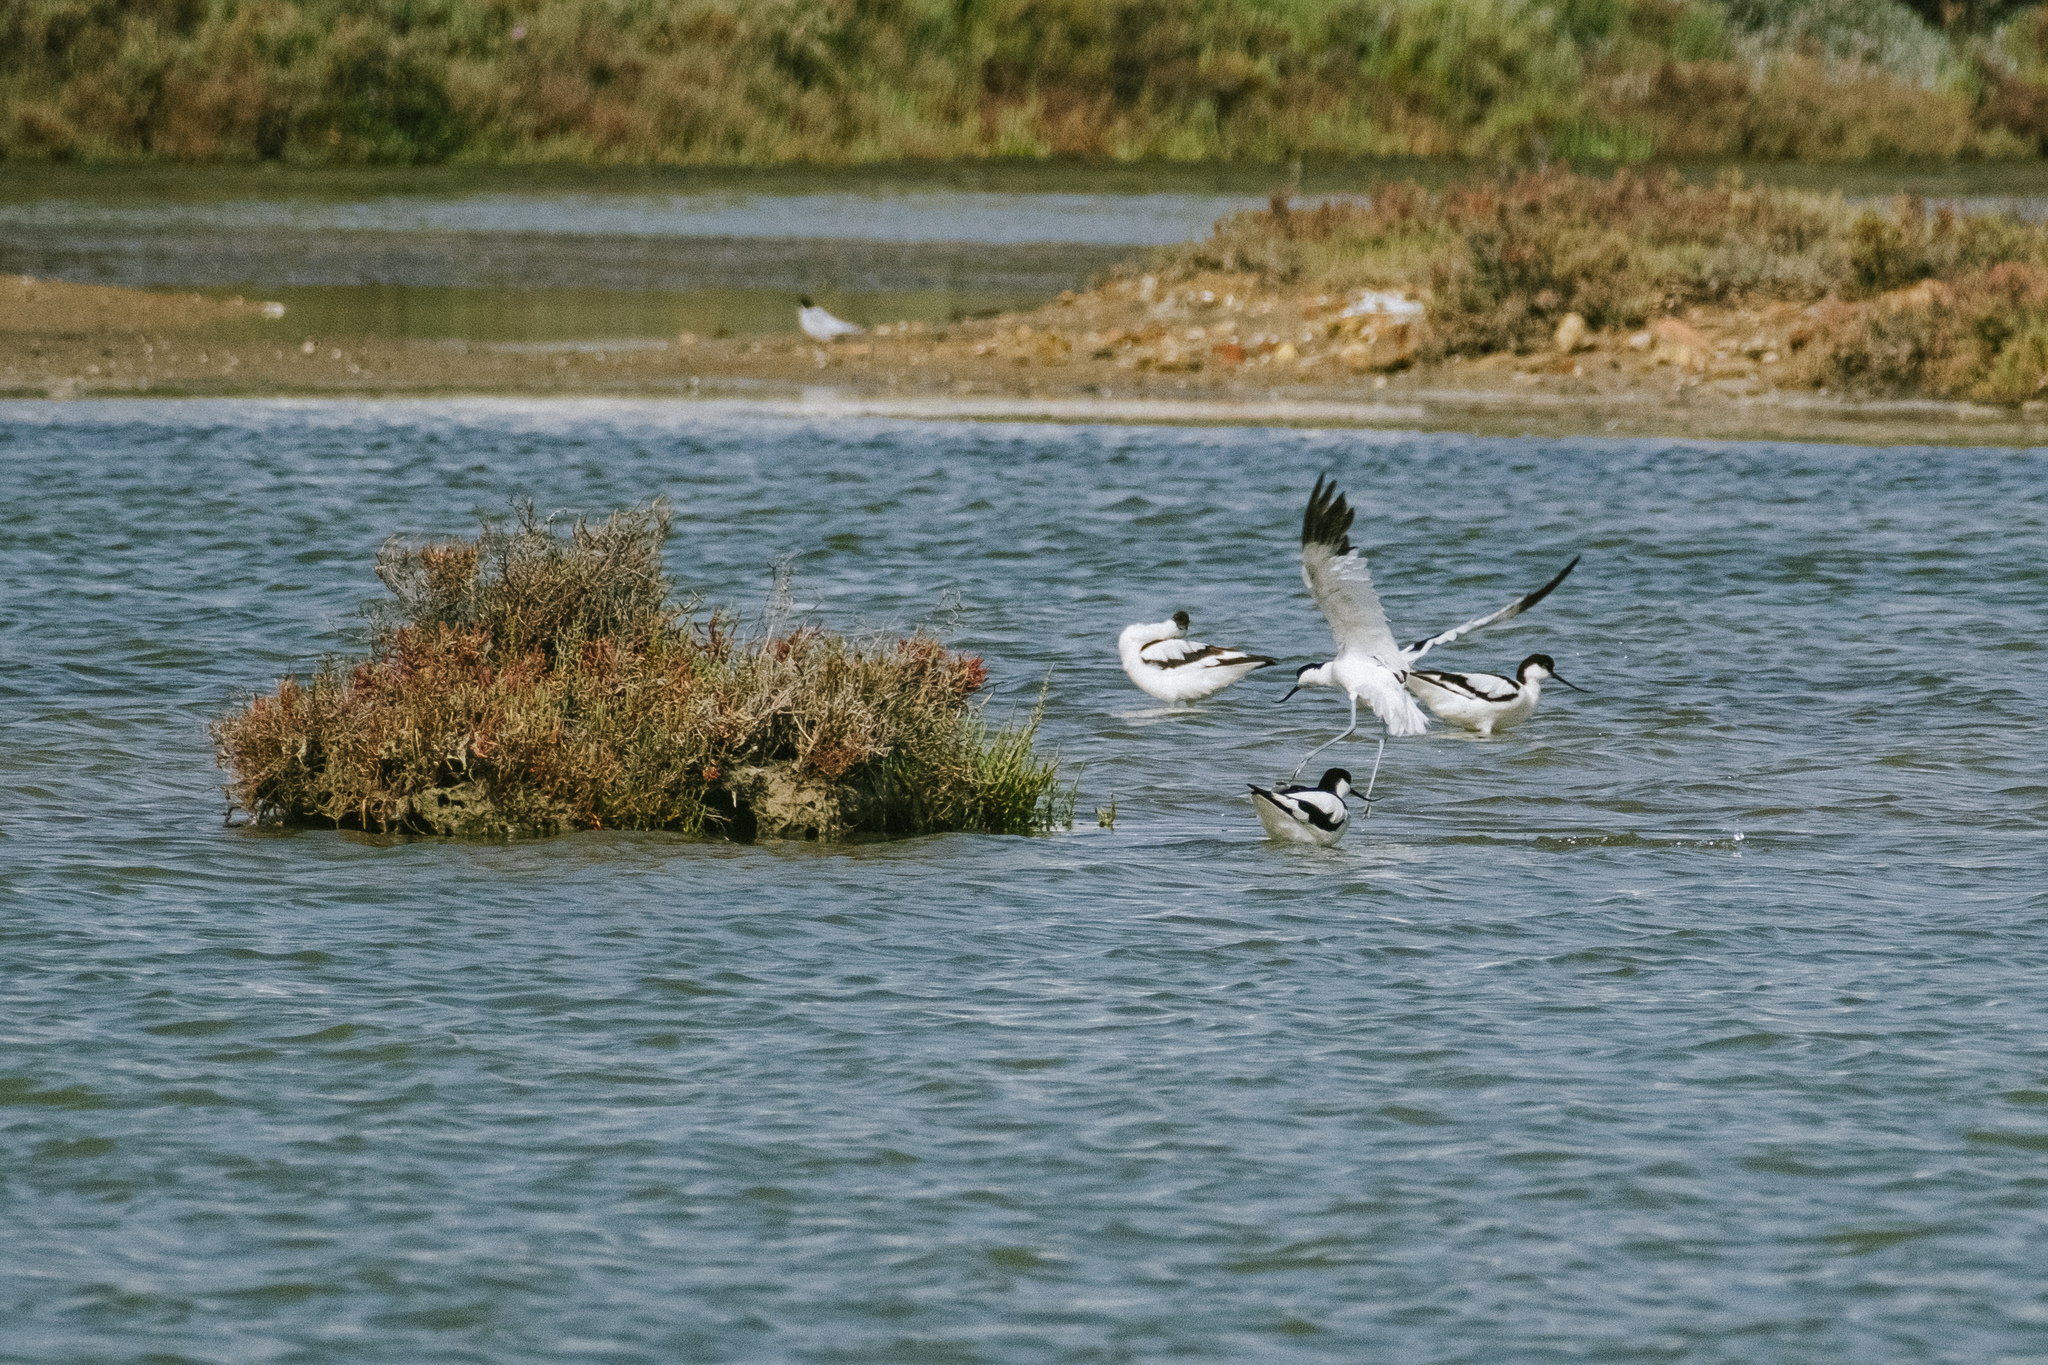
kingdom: Animalia
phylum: Chordata
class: Aves
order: Charadriiformes
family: Recurvirostridae
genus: Recurvirostra
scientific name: Recurvirostra avosetta
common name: Pied avocet
